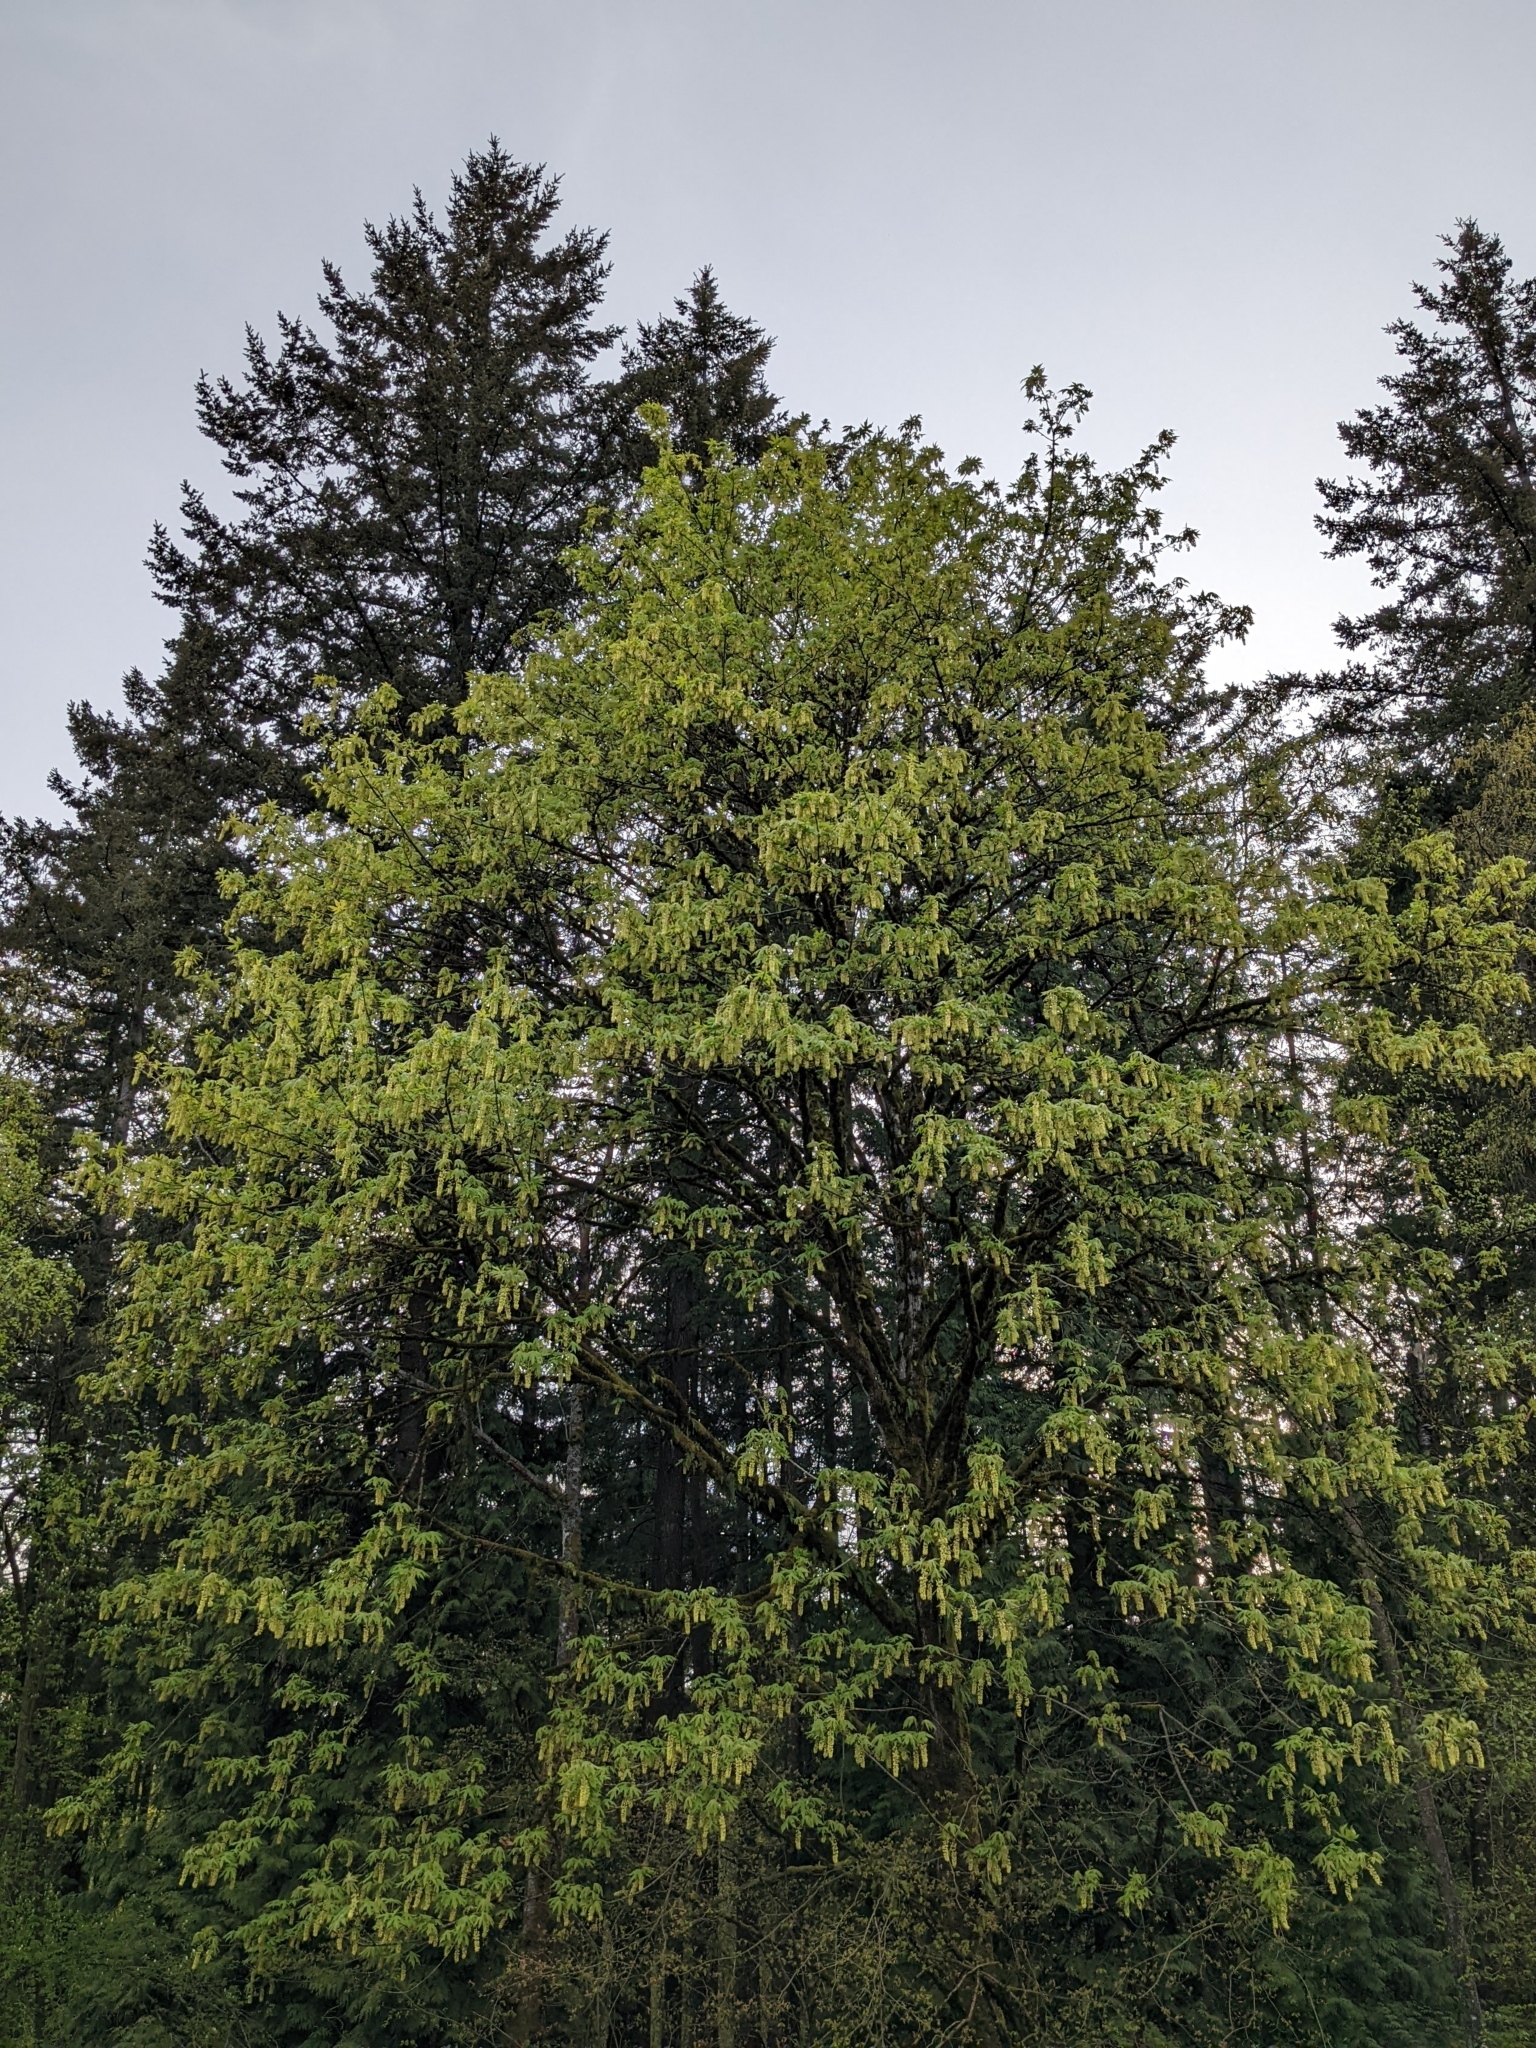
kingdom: Plantae
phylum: Tracheophyta
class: Magnoliopsida
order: Sapindales
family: Sapindaceae
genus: Acer
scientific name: Acer macrophyllum
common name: Oregon maple
